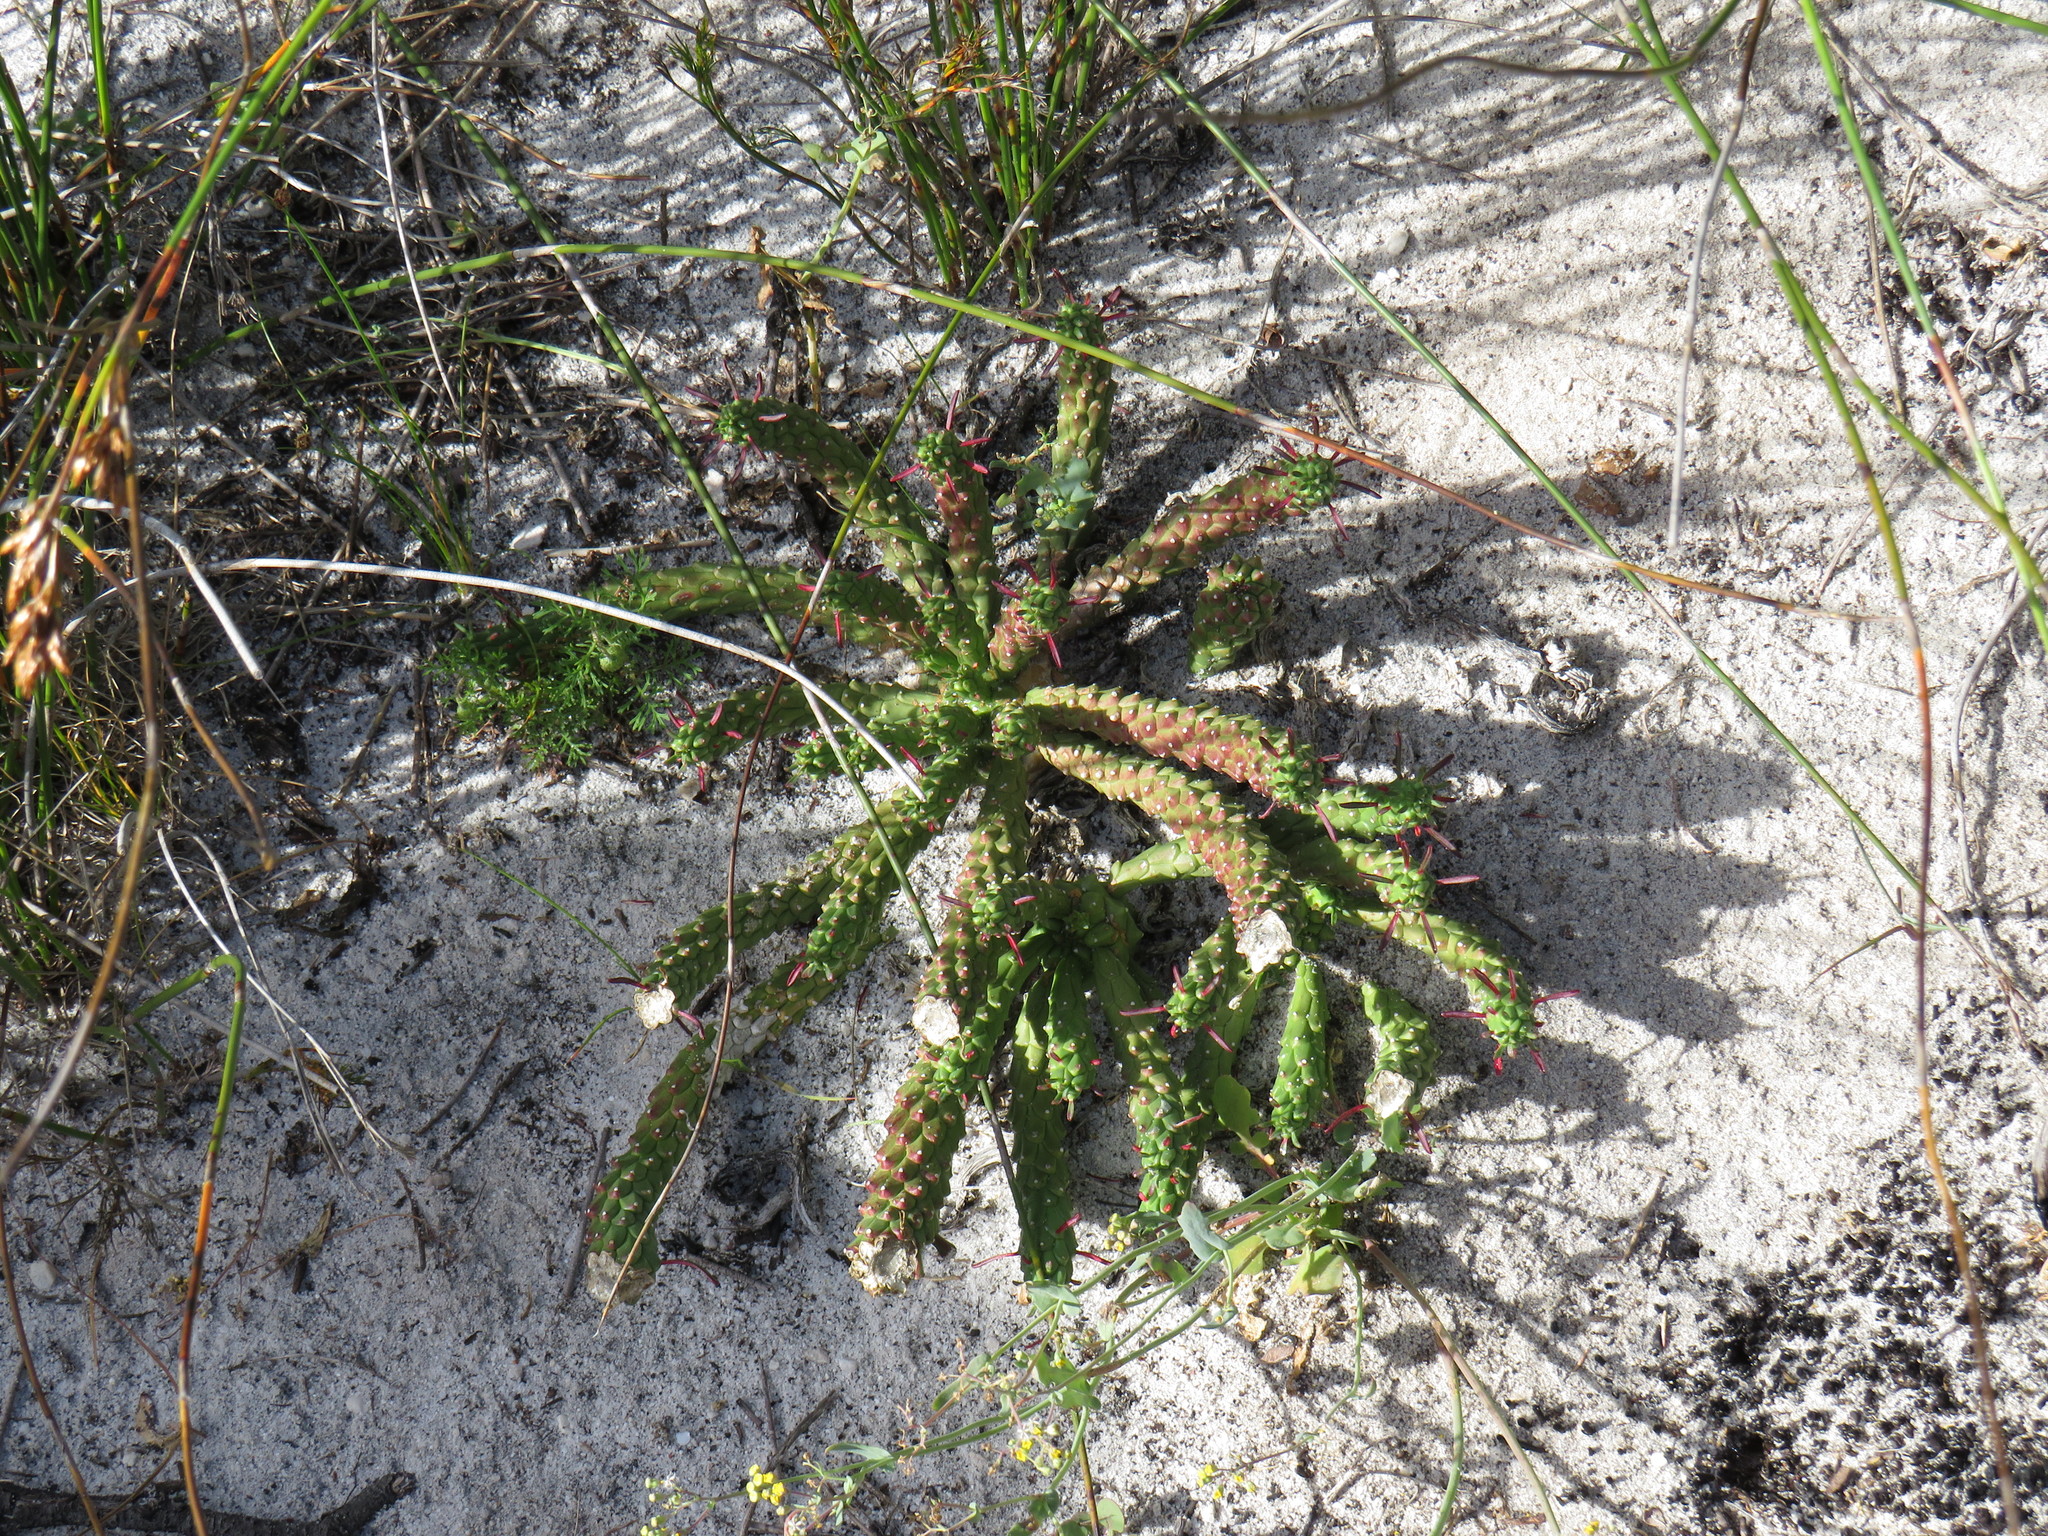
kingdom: Plantae
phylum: Tracheophyta
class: Magnoliopsida
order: Malpighiales
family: Euphorbiaceae
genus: Euphorbia
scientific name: Euphorbia caput-medusae
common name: Medusa's-head
